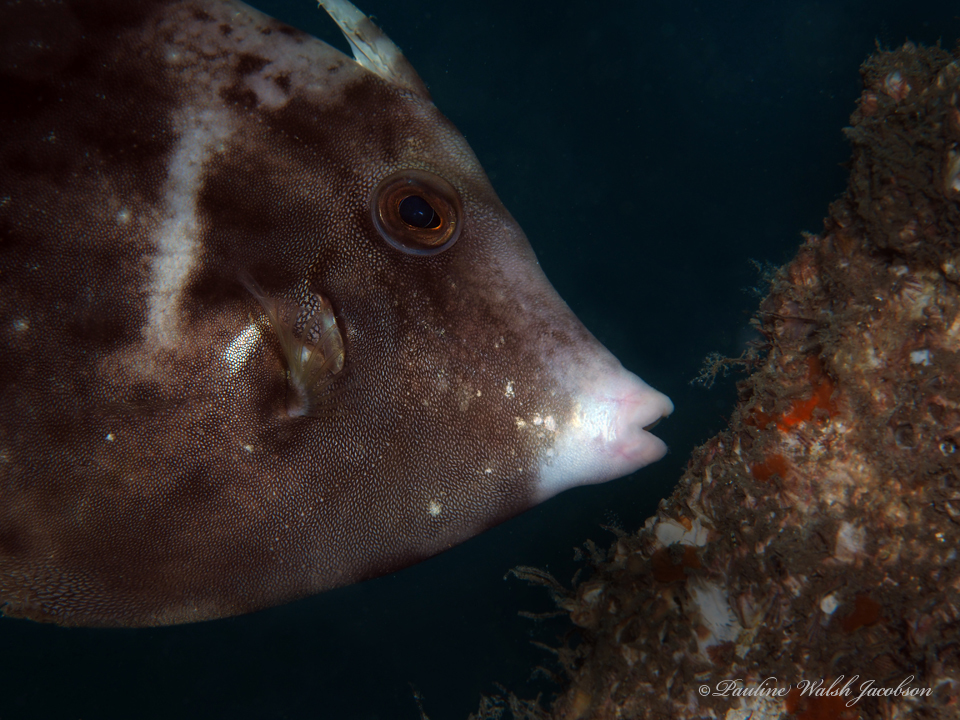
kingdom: Animalia
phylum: Chordata
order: Tetraodontiformes
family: Monacanthidae
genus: Stephanolepis
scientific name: Stephanolepis hispidus
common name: Planehead filefish
